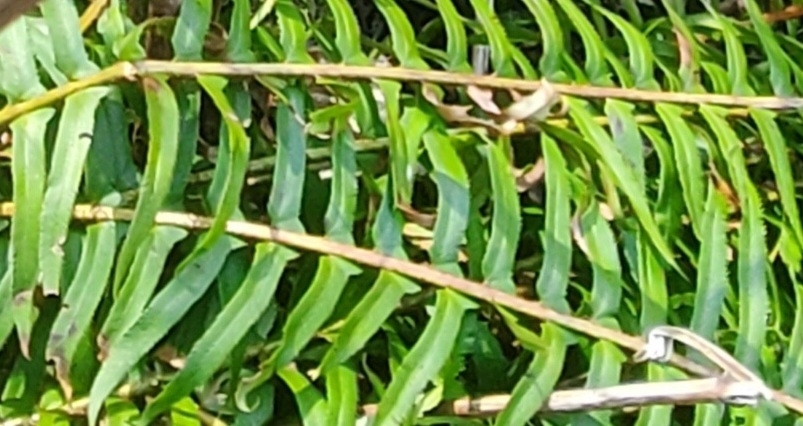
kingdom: Plantae
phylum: Tracheophyta
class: Polypodiopsida
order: Polypodiales
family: Dryopteridaceae
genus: Polystichum
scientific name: Polystichum munitum
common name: Western sword-fern
